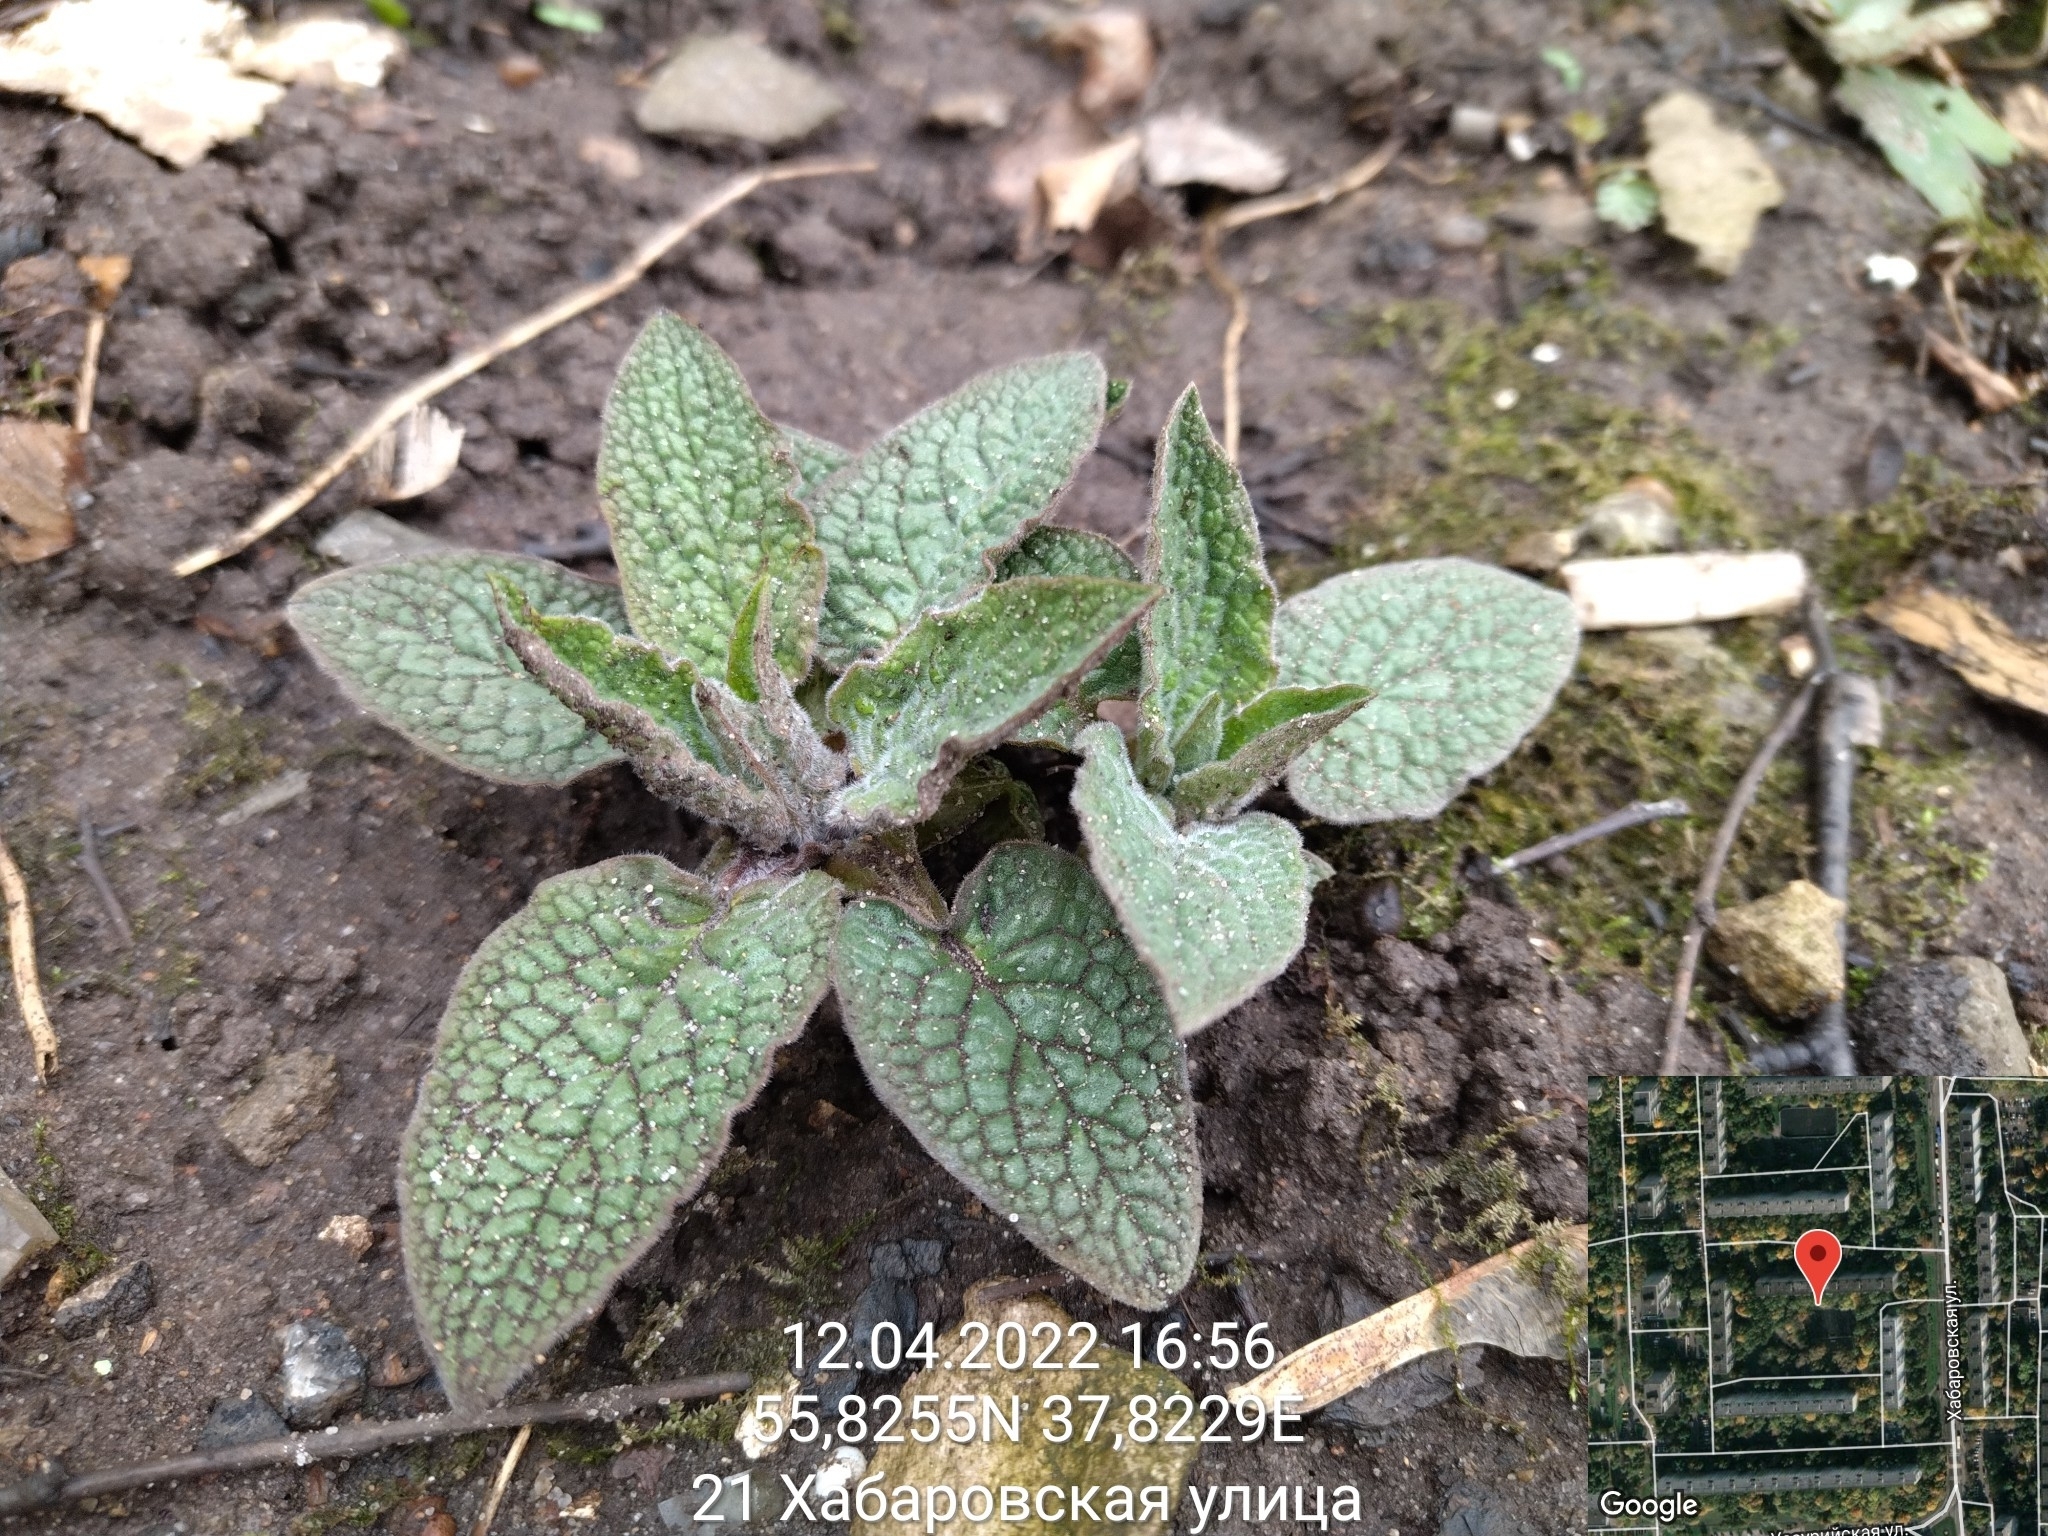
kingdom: Plantae
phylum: Tracheophyta
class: Magnoliopsida
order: Boraginales
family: Boraginaceae
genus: Symphytum
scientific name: Symphytum caucasicum
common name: Caucasian comfrey
